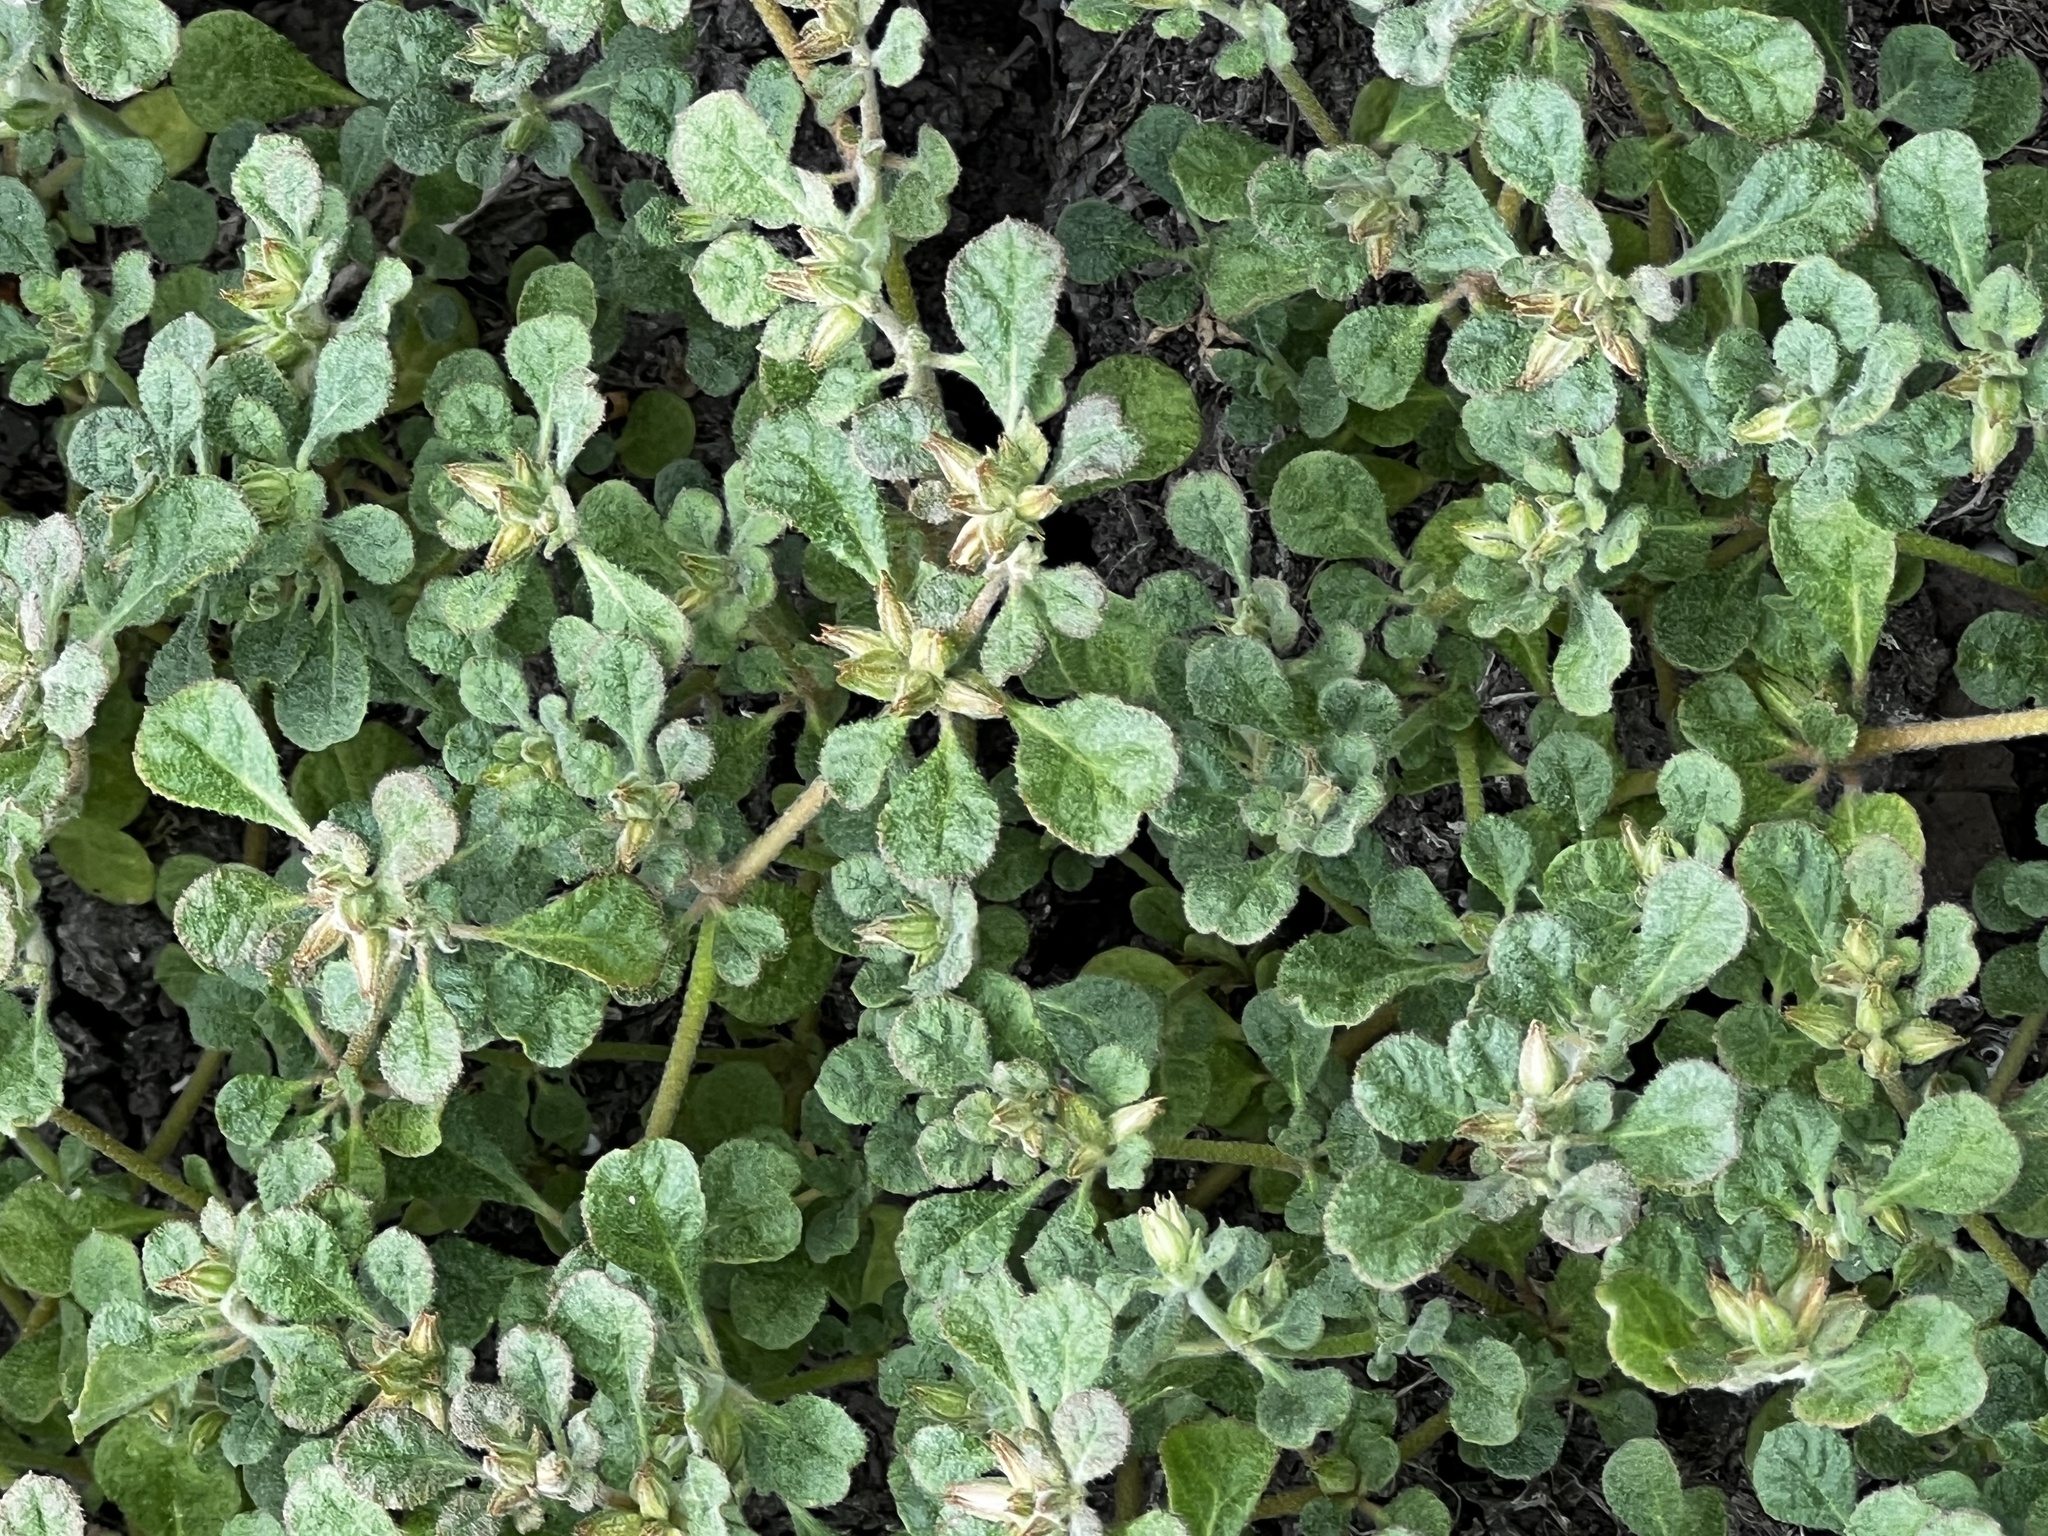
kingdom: Plantae
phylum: Tracheophyta
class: Magnoliopsida
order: Caryophyllales
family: Amaranthaceae
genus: Alternanthera
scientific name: Alternanthera caracasana
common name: Washerwoman
